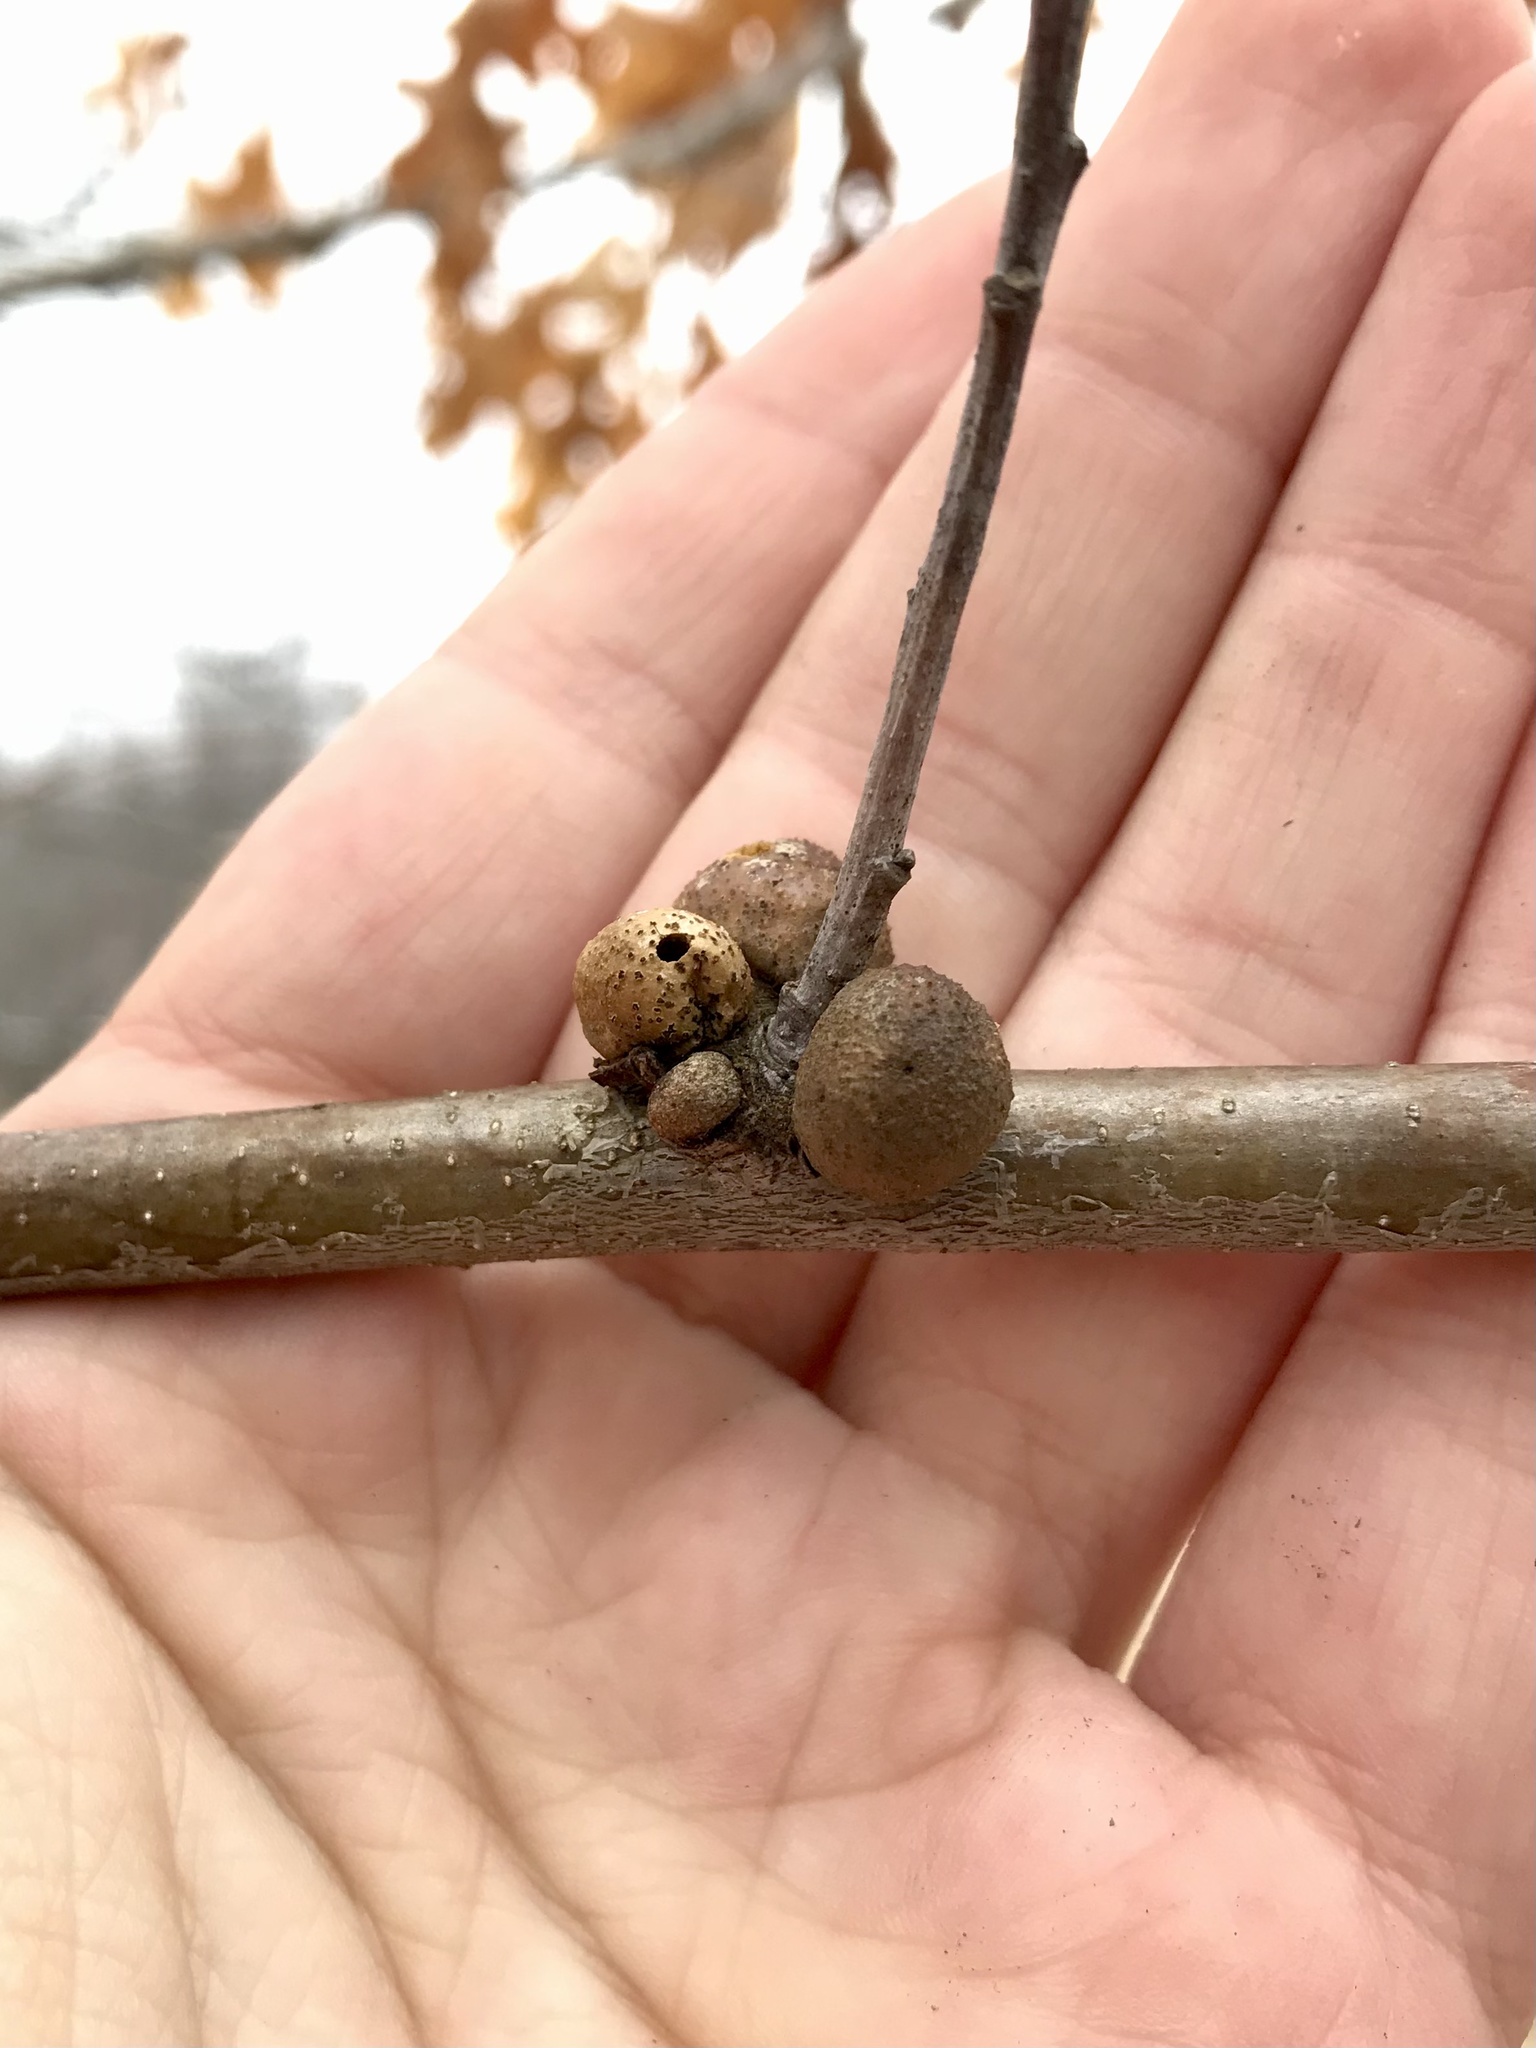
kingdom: Animalia
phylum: Arthropoda
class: Insecta
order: Hymenoptera
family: Cynipidae
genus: Disholcaspis
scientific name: Disholcaspis quercusglobulus
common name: Round bullet gall wasp
